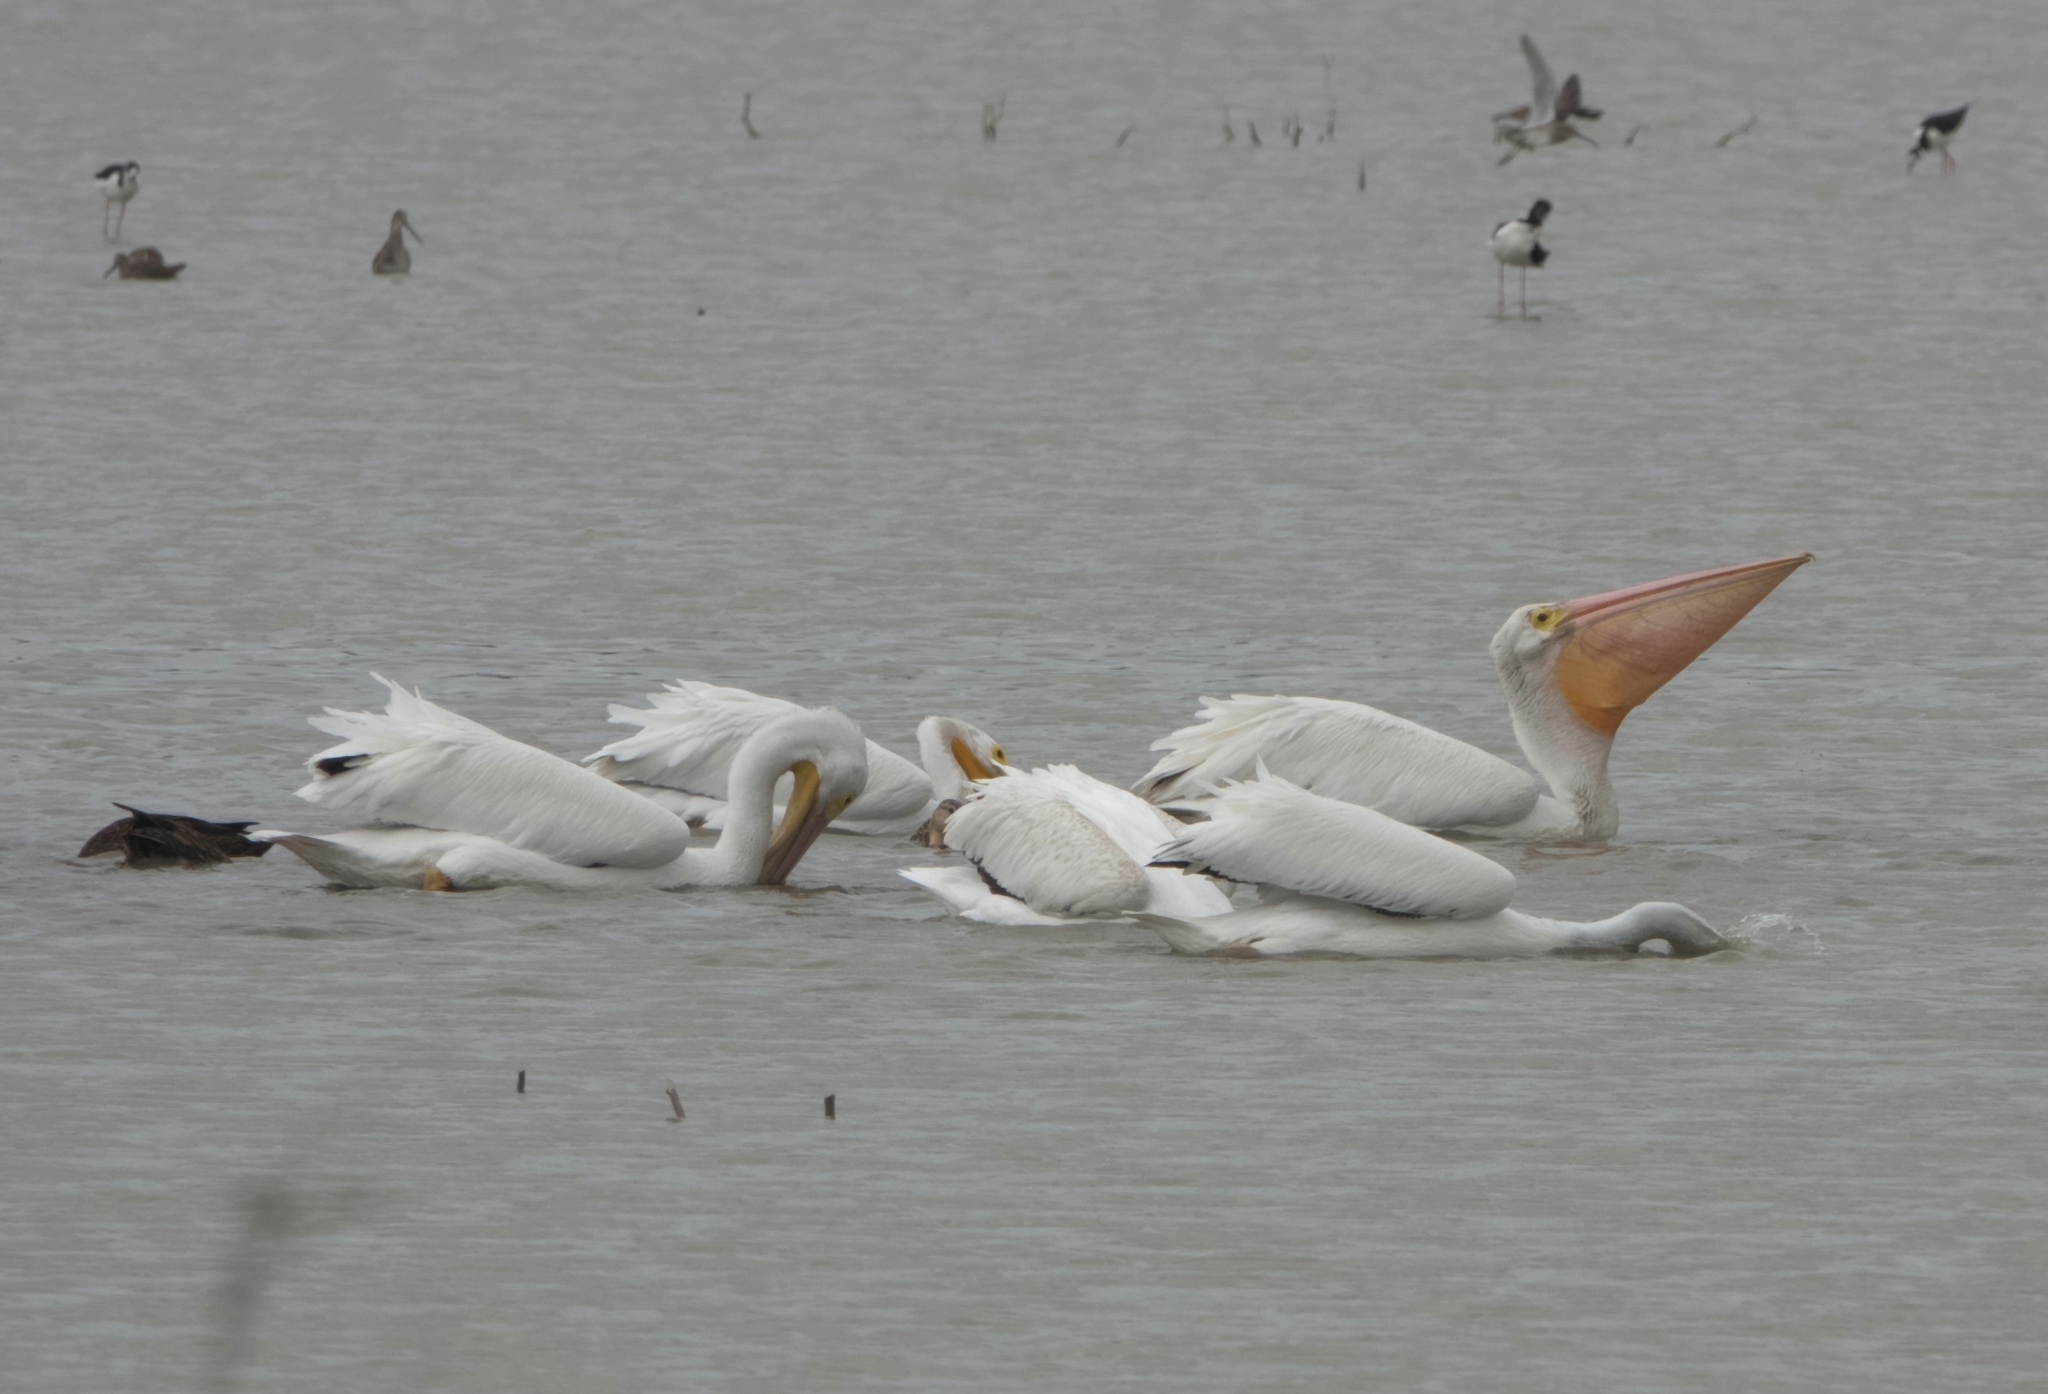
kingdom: Animalia
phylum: Chordata
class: Aves
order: Pelecaniformes
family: Pelecanidae
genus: Pelecanus
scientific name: Pelecanus erythrorhynchos
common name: American white pelican
